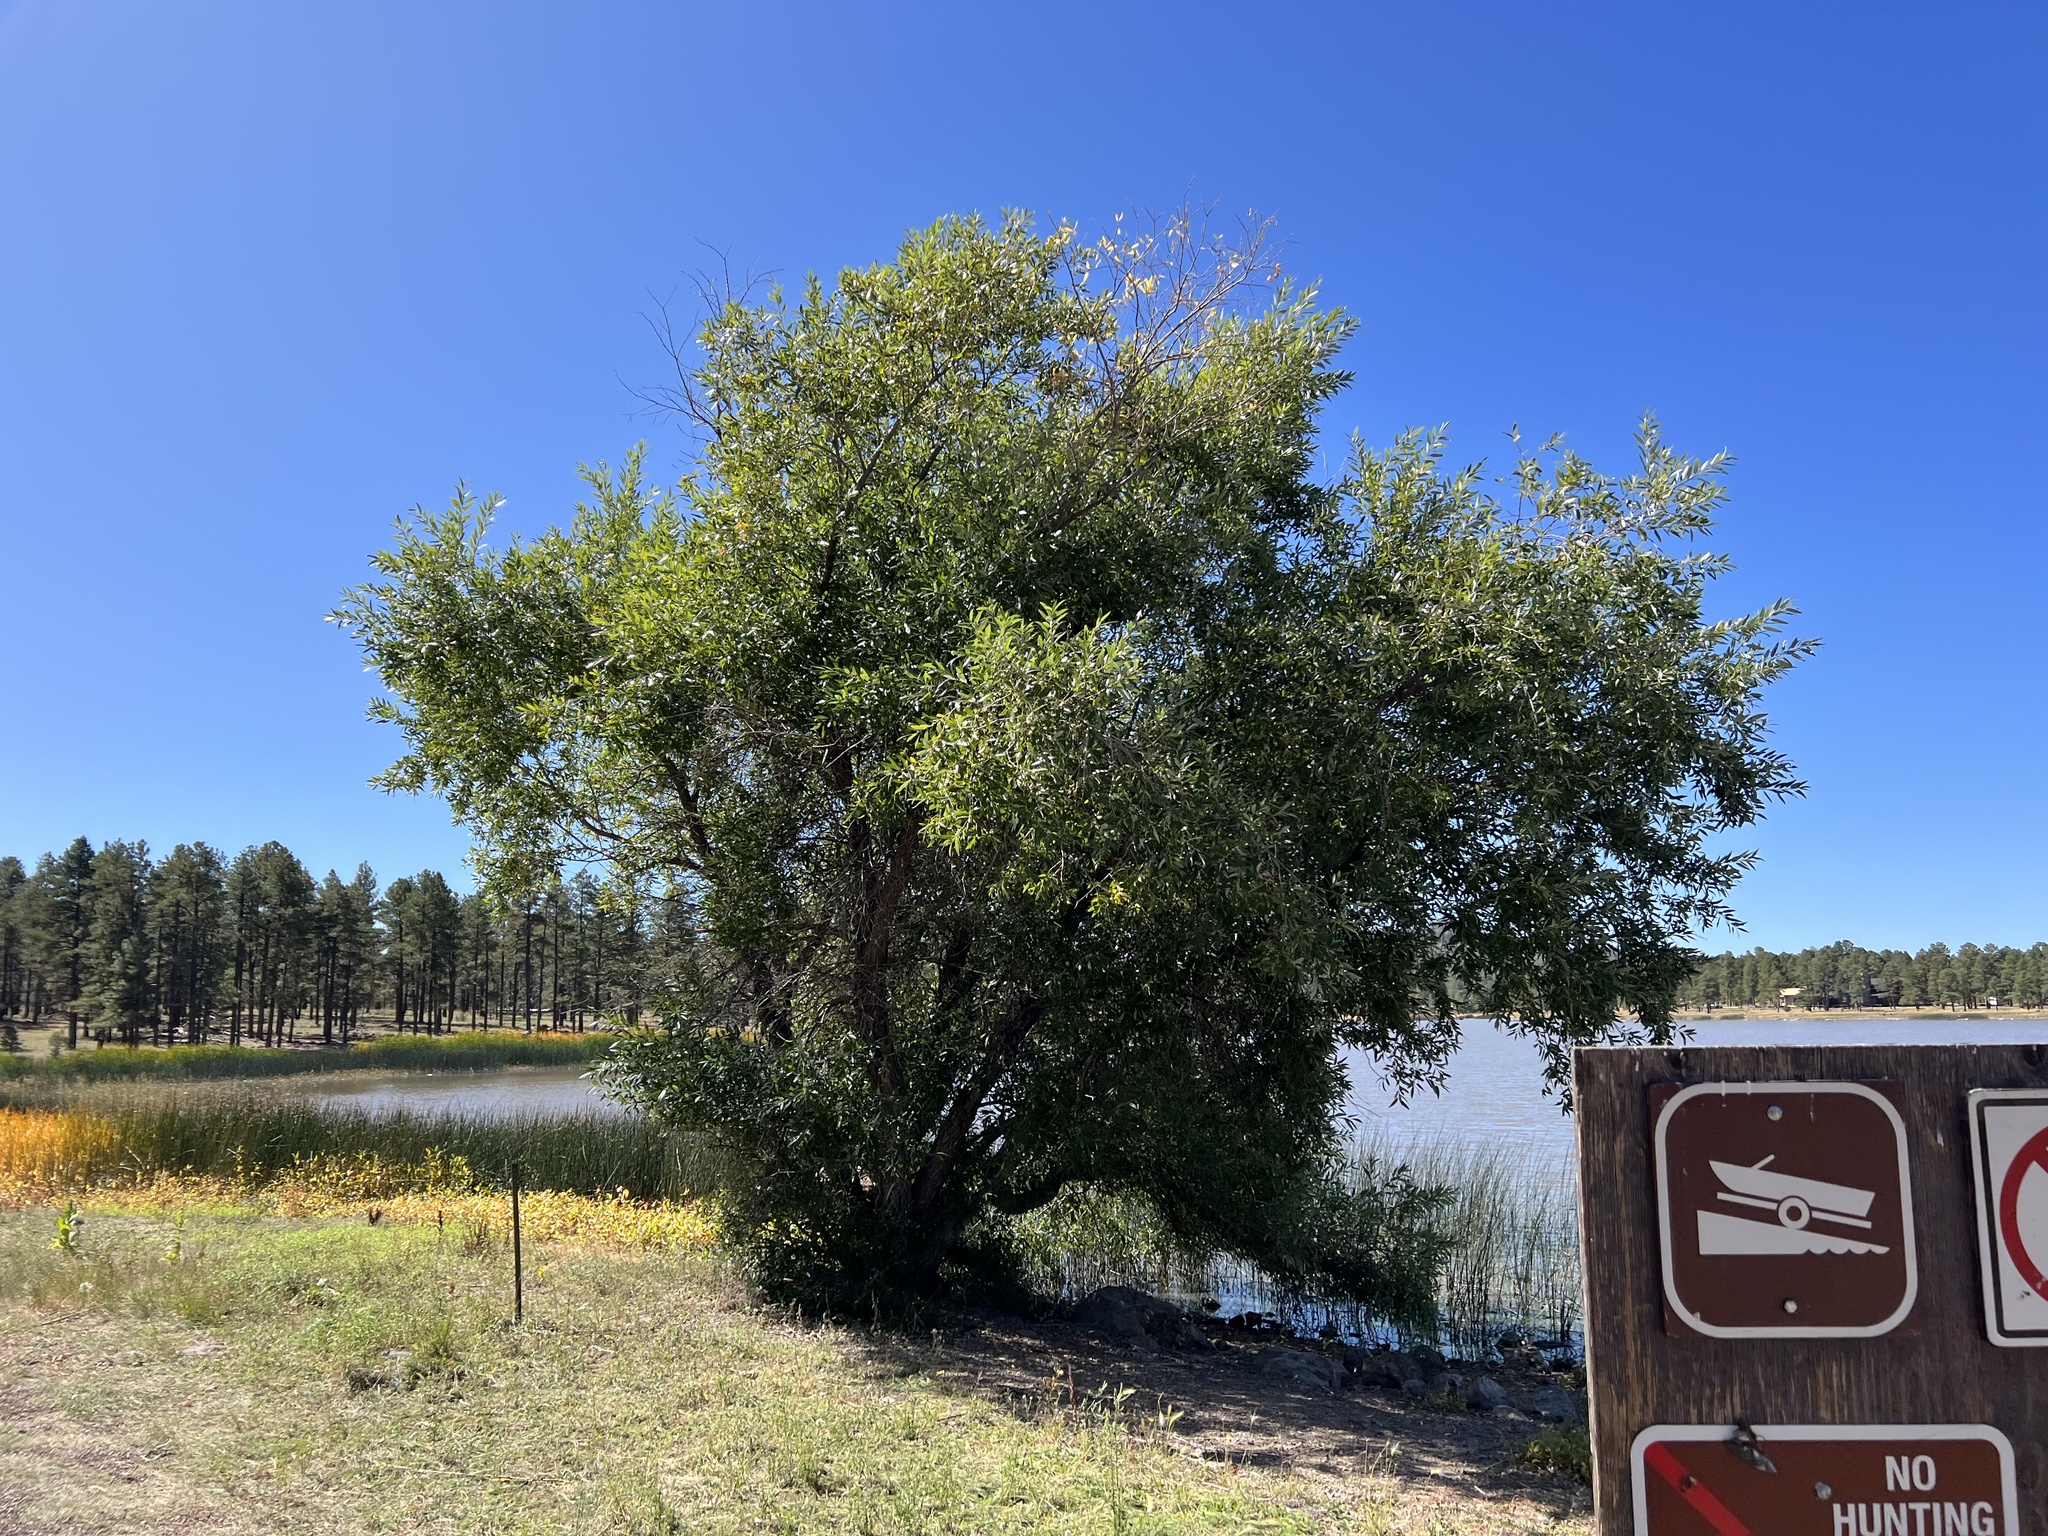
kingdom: Plantae
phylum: Tracheophyta
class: Magnoliopsida
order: Malpighiales
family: Salicaceae
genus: Salix
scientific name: Salix laevigata
